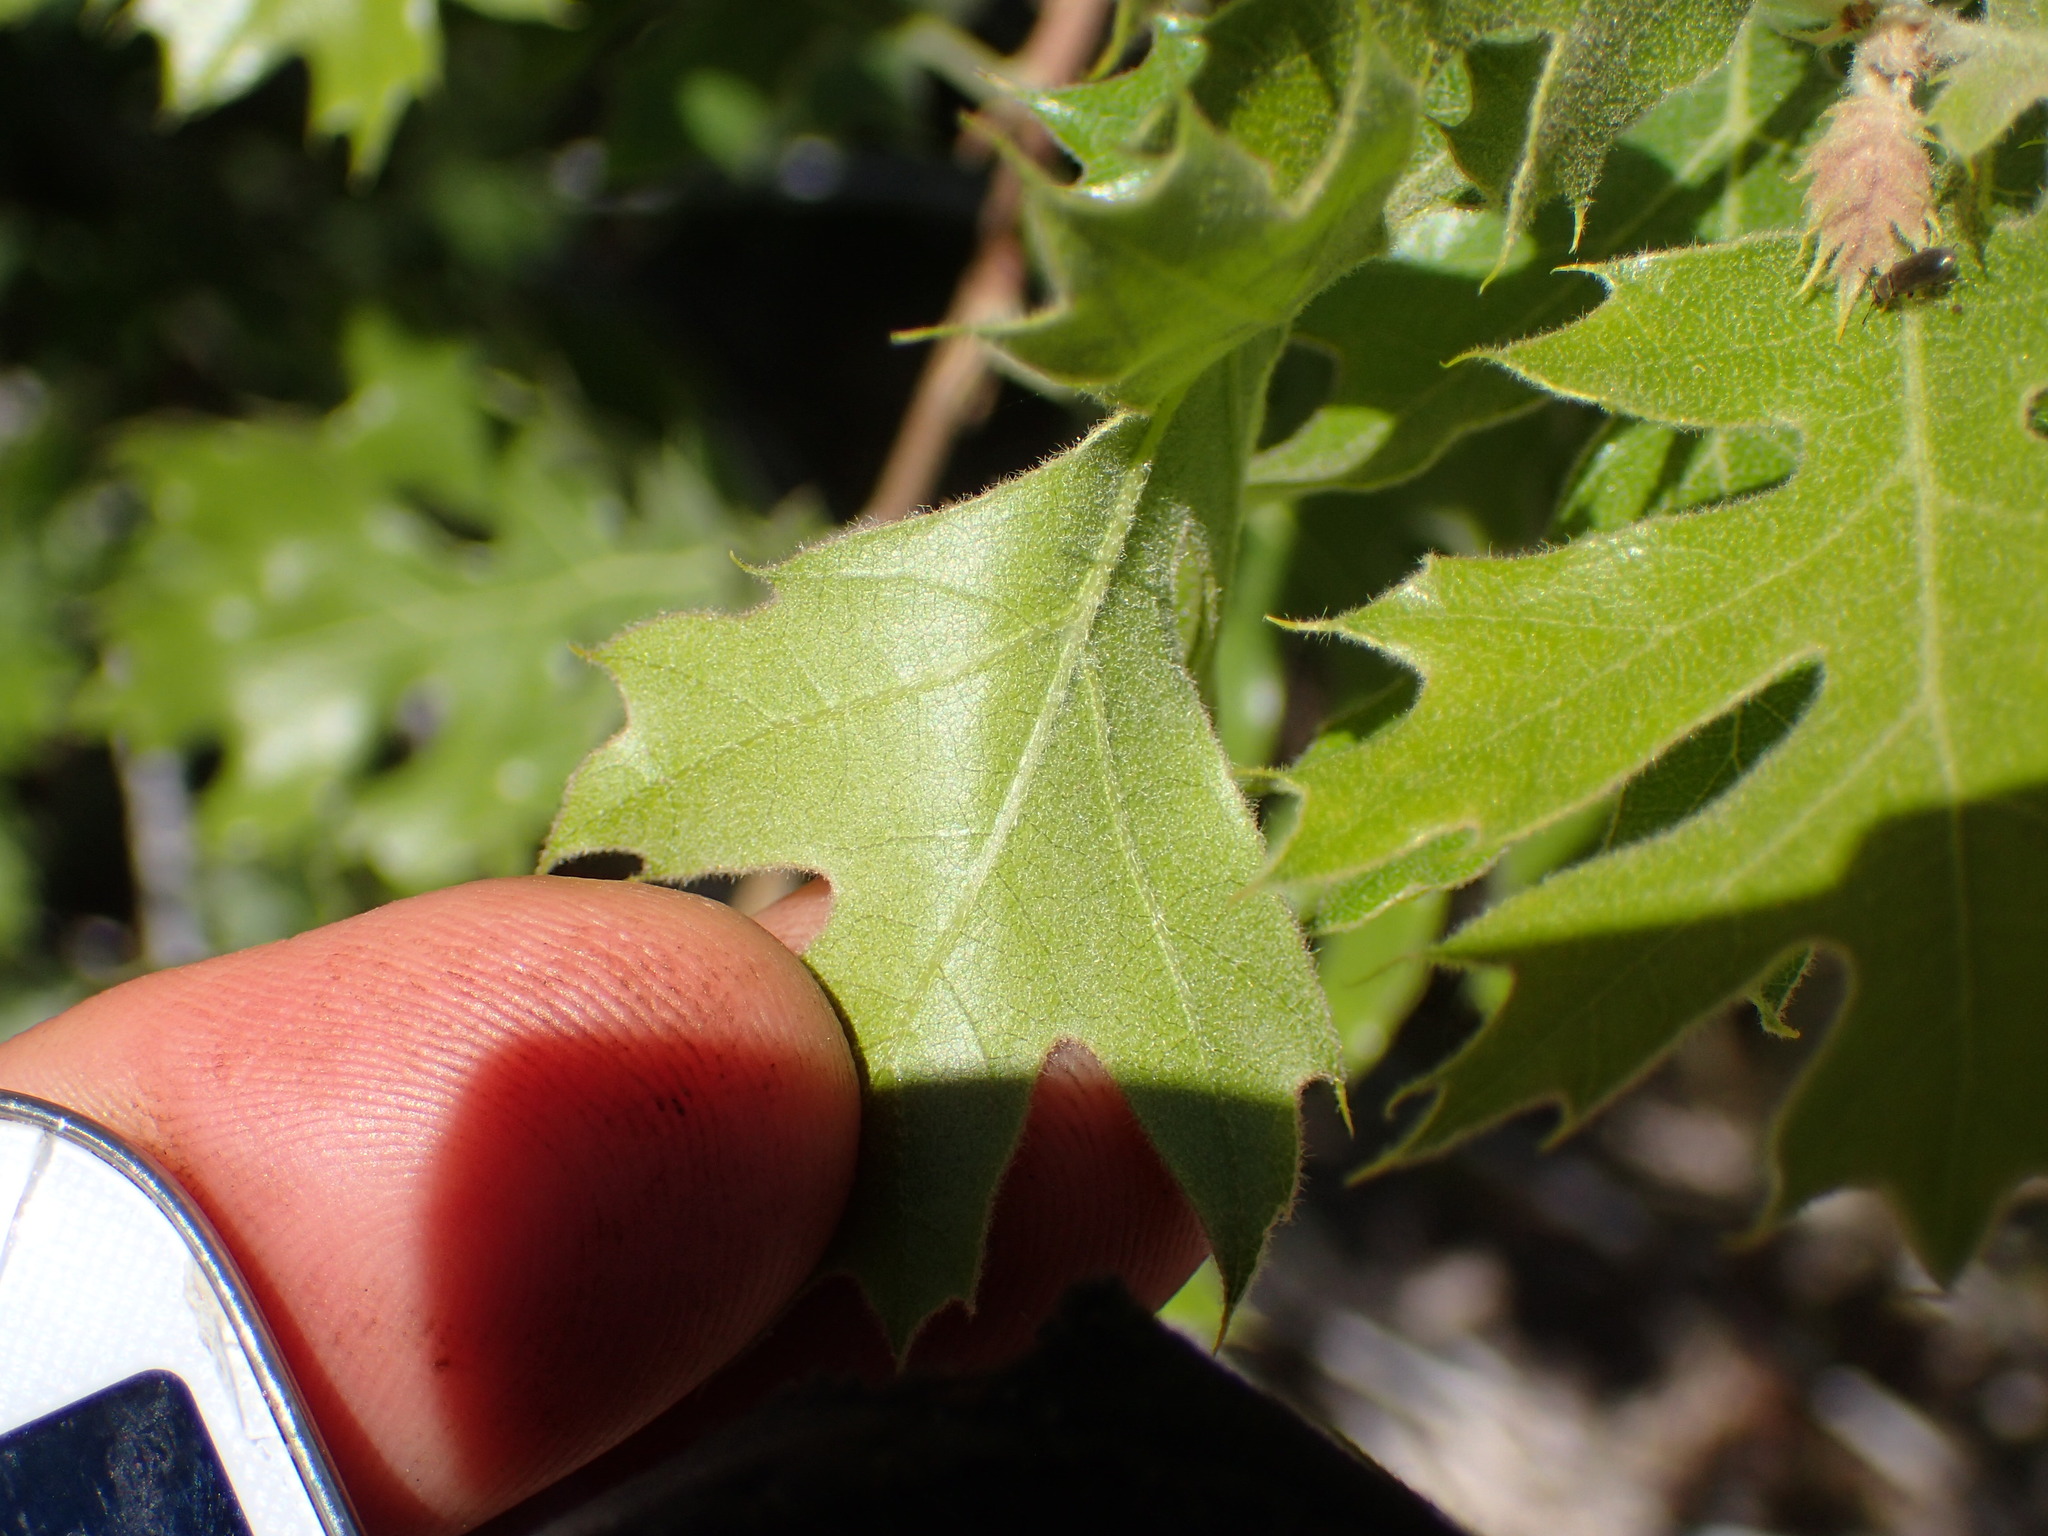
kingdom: Plantae
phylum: Tracheophyta
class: Magnoliopsida
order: Fagales
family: Fagaceae
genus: Quercus
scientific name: Quercus kelloggii
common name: California black oak
